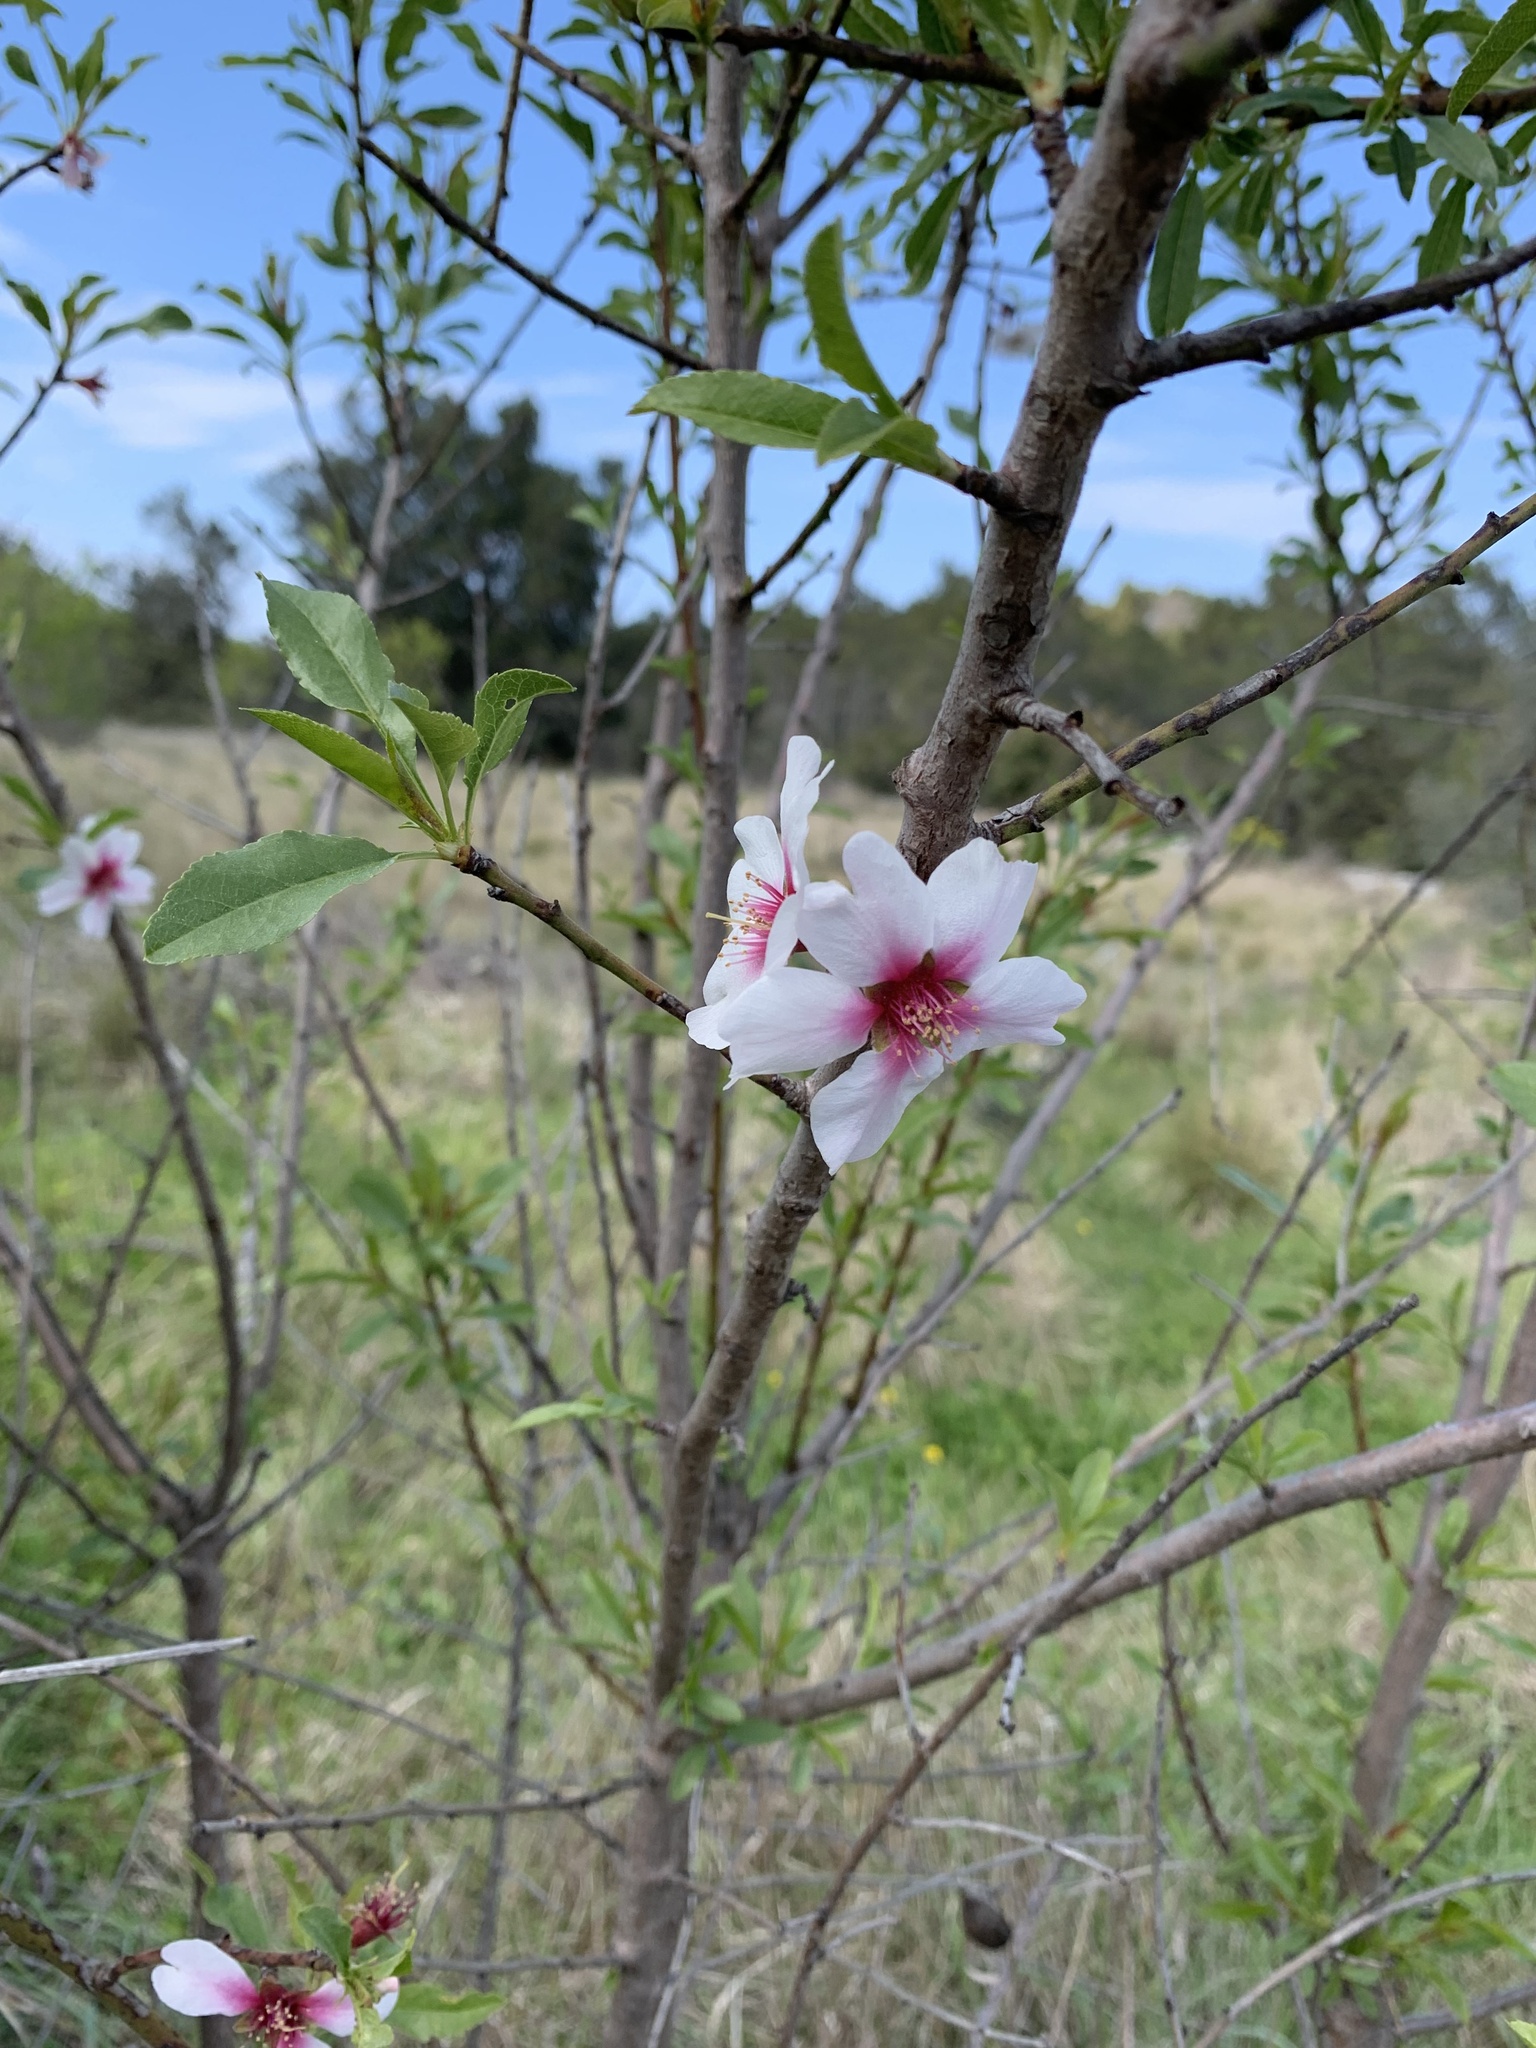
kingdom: Plantae
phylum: Tracheophyta
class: Magnoliopsida
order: Rosales
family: Rosaceae
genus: Prunus
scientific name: Prunus amygdalus
